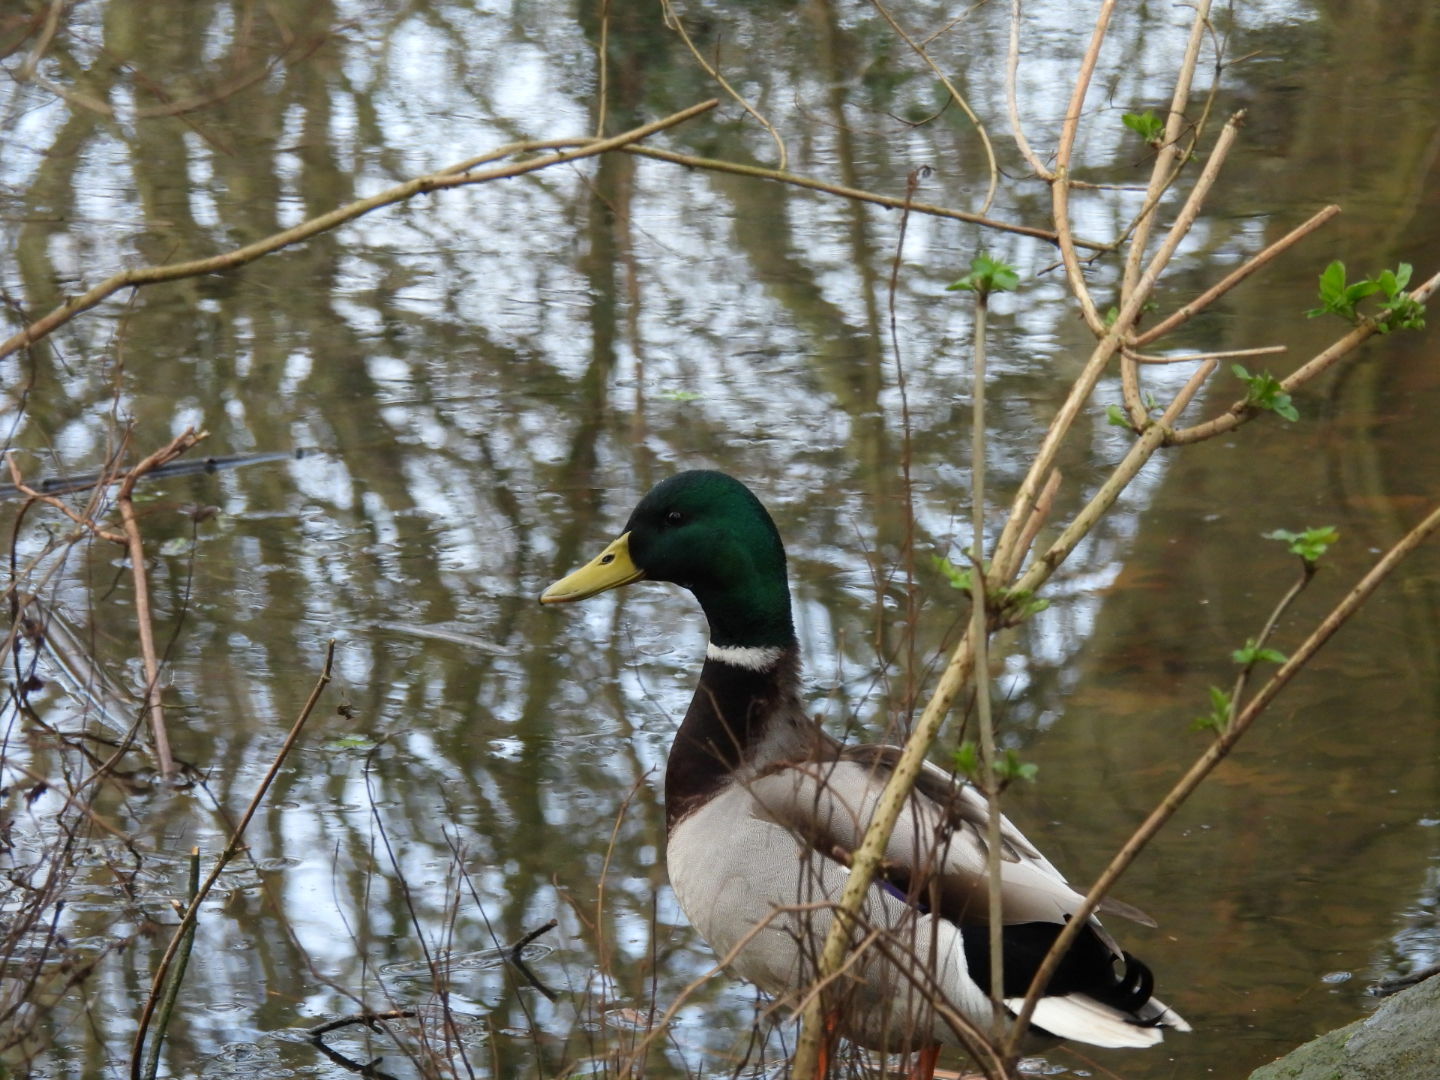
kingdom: Animalia
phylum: Chordata
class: Aves
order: Anseriformes
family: Anatidae
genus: Anas
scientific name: Anas platyrhynchos
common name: Mallard
